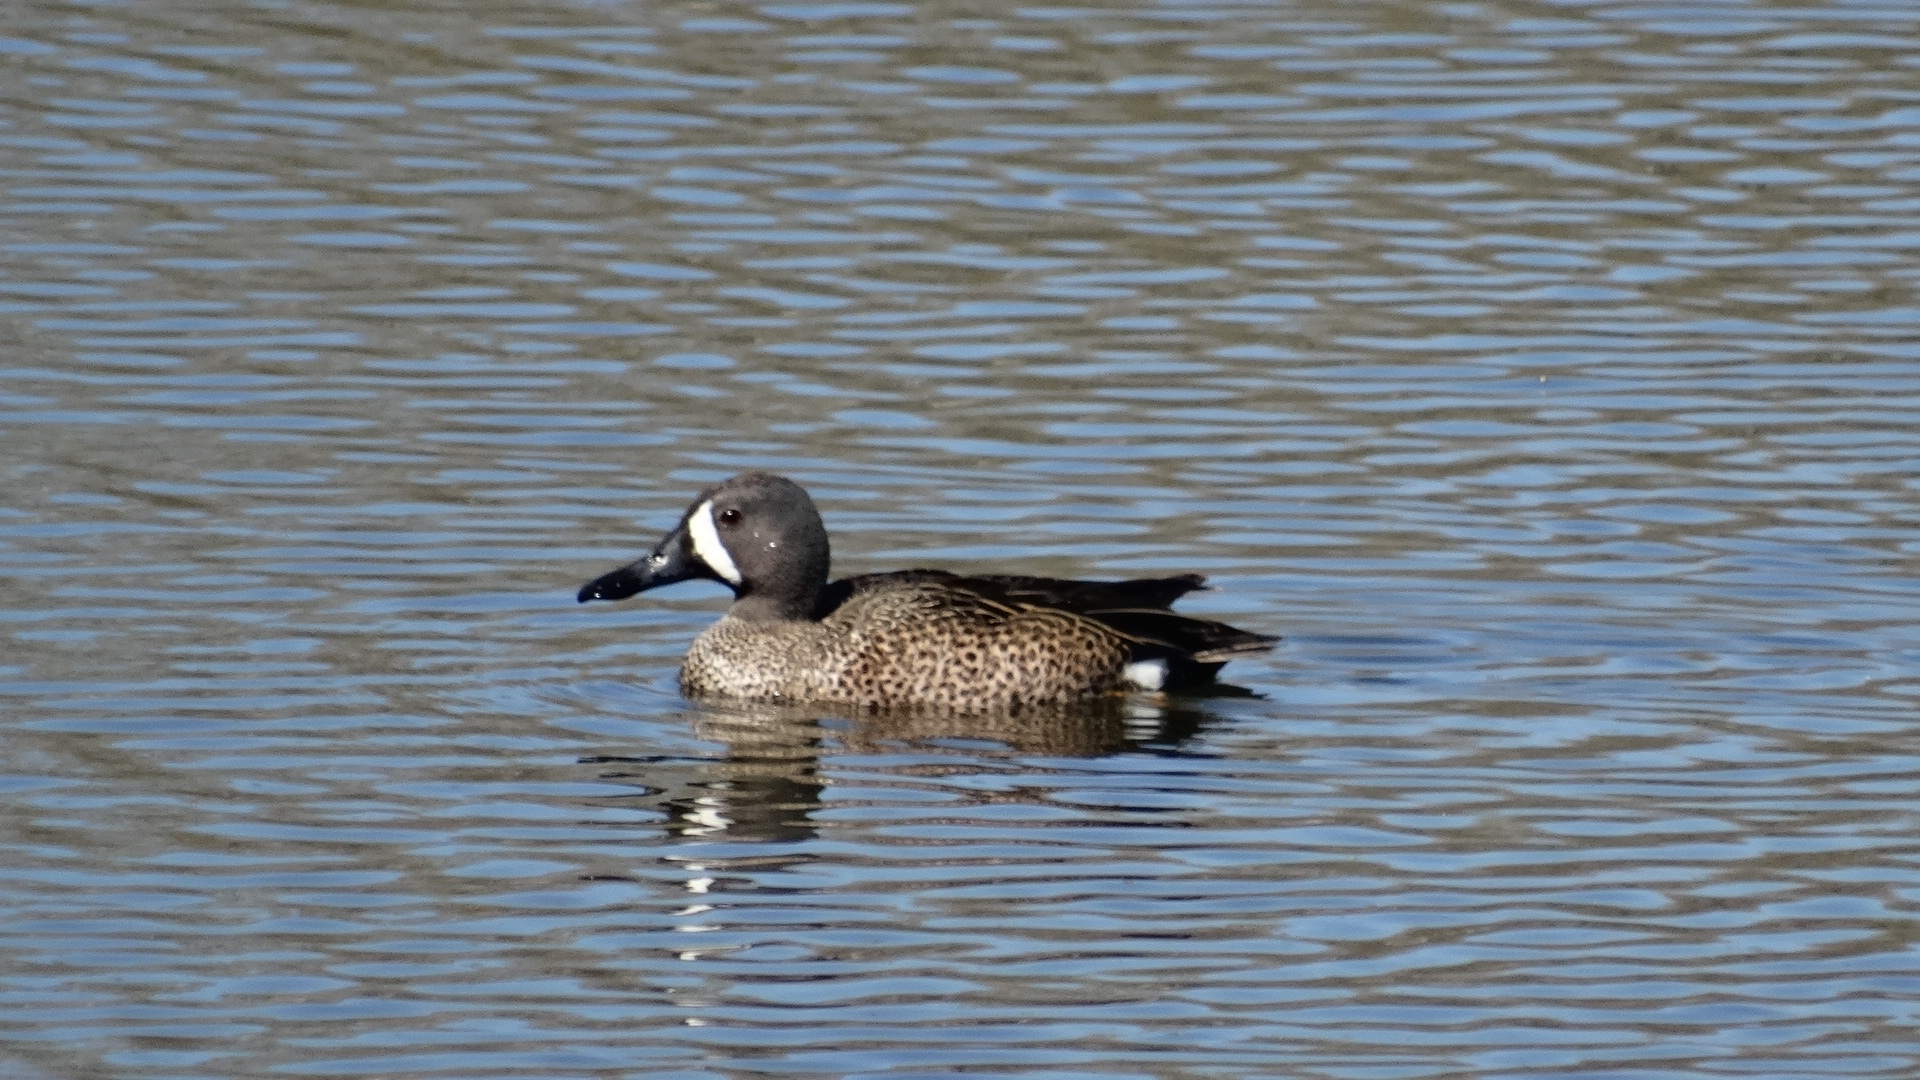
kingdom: Animalia
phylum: Chordata
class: Aves
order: Anseriformes
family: Anatidae
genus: Spatula
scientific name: Spatula discors
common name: Blue-winged teal
